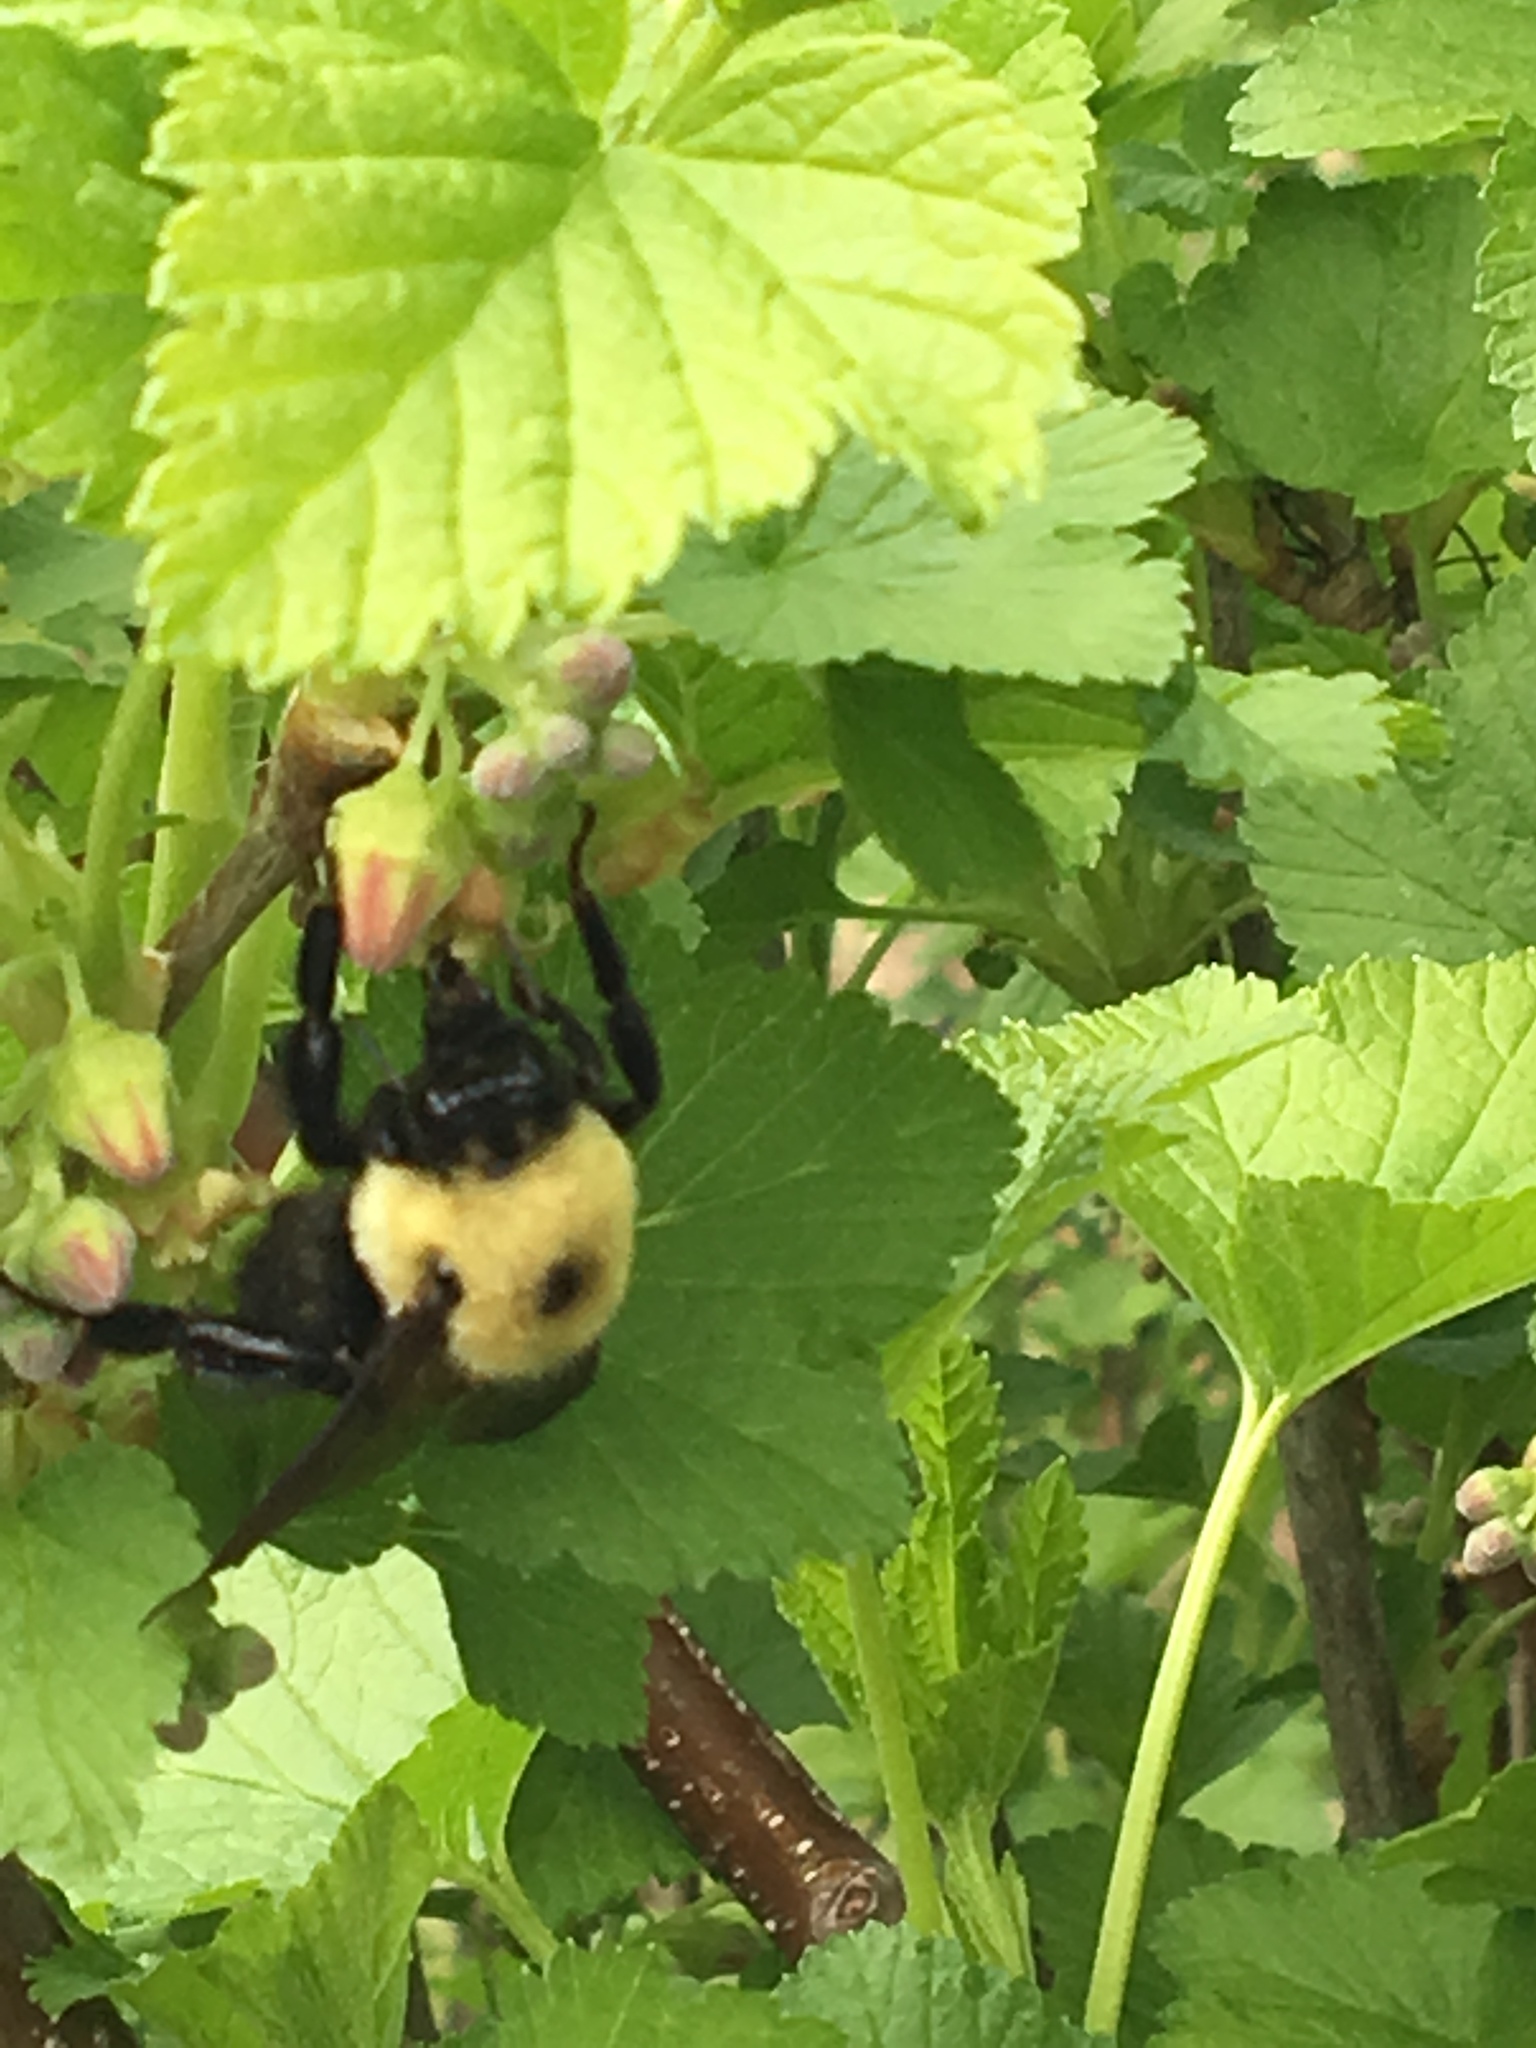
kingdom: Animalia
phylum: Arthropoda
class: Insecta
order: Hymenoptera
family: Apidae
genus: Bombus
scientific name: Bombus griseocollis
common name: Brown-belted bumble bee
